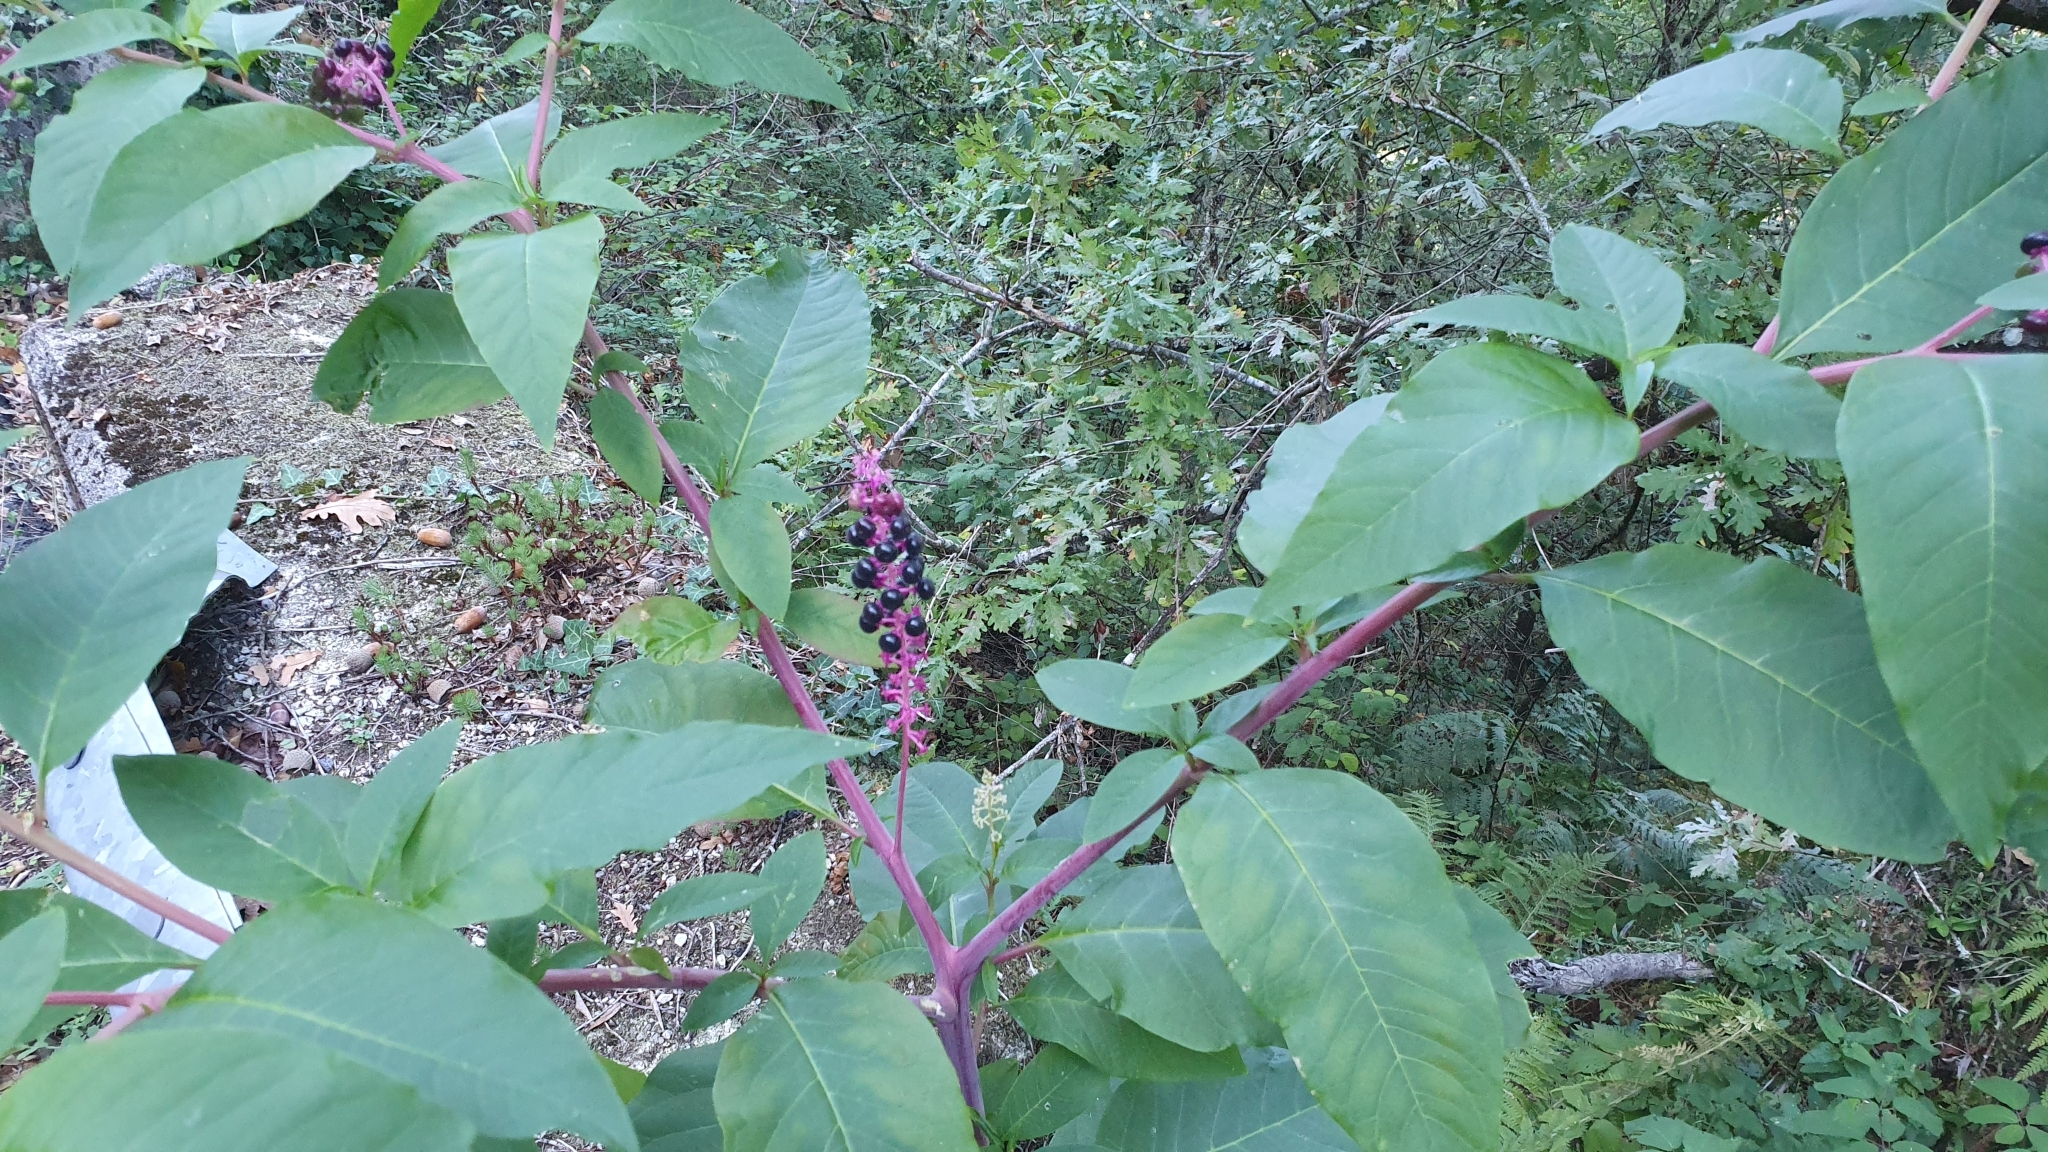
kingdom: Plantae
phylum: Tracheophyta
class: Magnoliopsida
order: Caryophyllales
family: Phytolaccaceae
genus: Phytolacca
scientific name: Phytolacca americana
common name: American pokeweed
